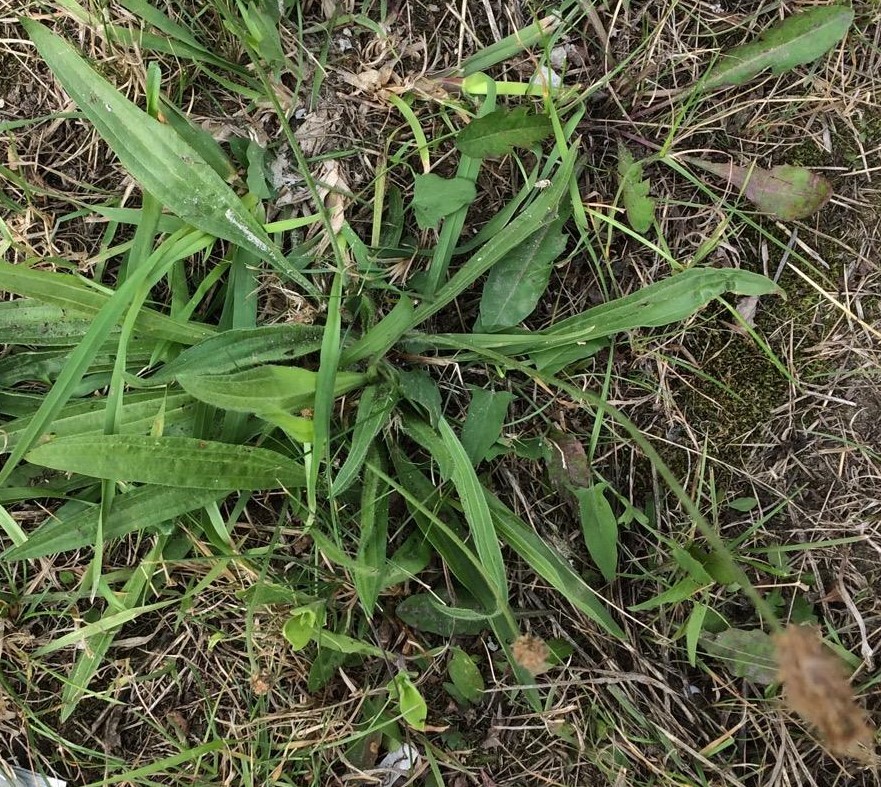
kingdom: Plantae
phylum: Tracheophyta
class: Magnoliopsida
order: Lamiales
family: Plantaginaceae
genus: Plantago
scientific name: Plantago lanceolata
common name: Ribwort plantain
